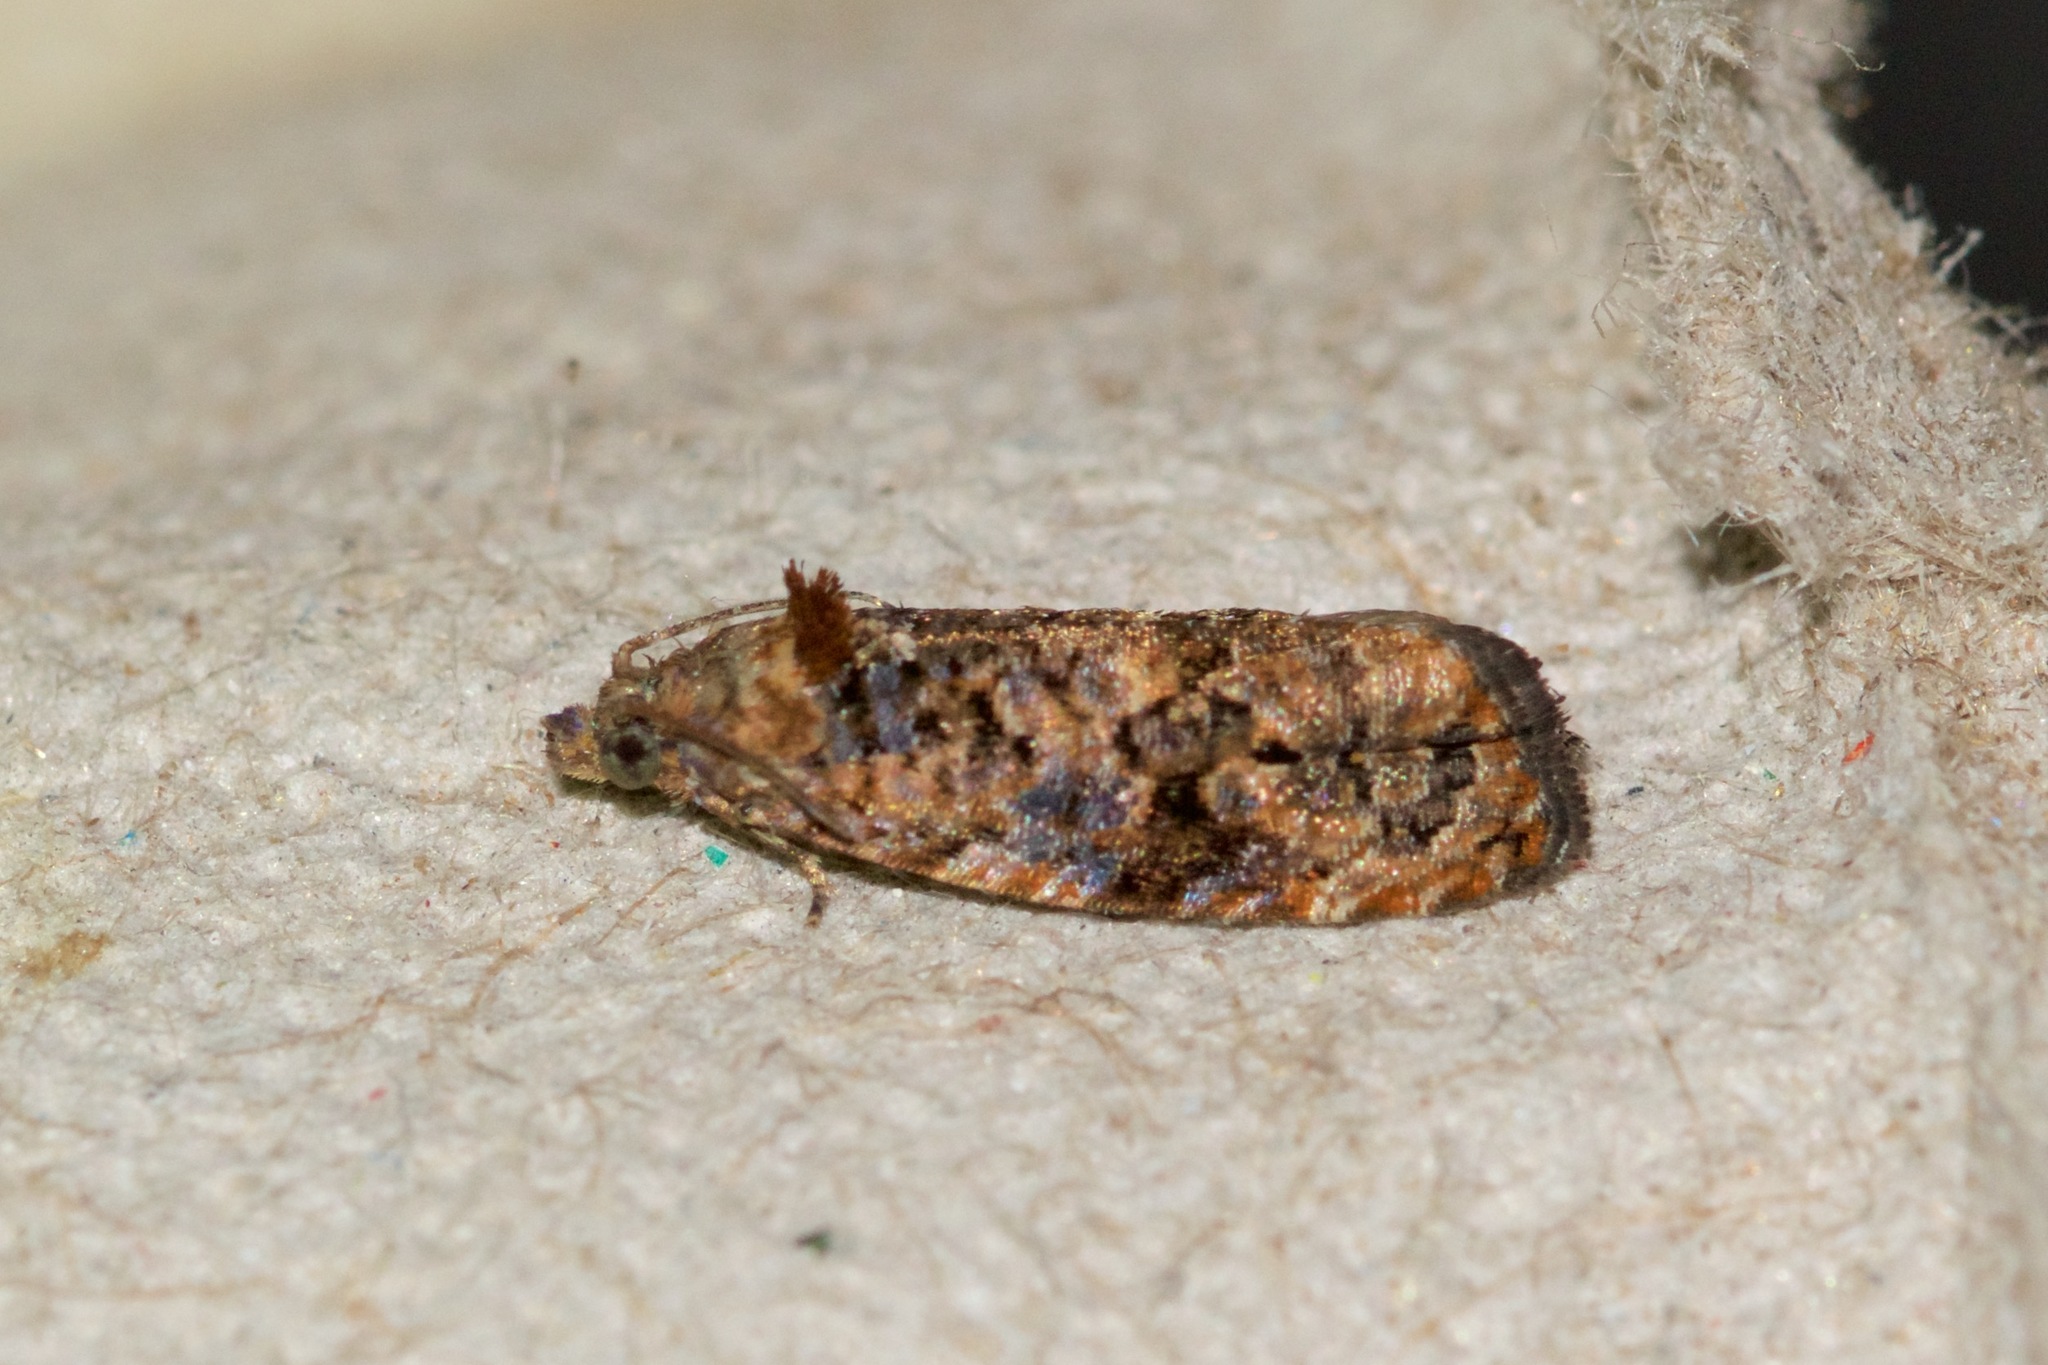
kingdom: Animalia
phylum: Arthropoda
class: Insecta
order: Lepidoptera
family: Tortricidae
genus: Endothenia
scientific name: Endothenia hebesana
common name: Verbena bud moth
